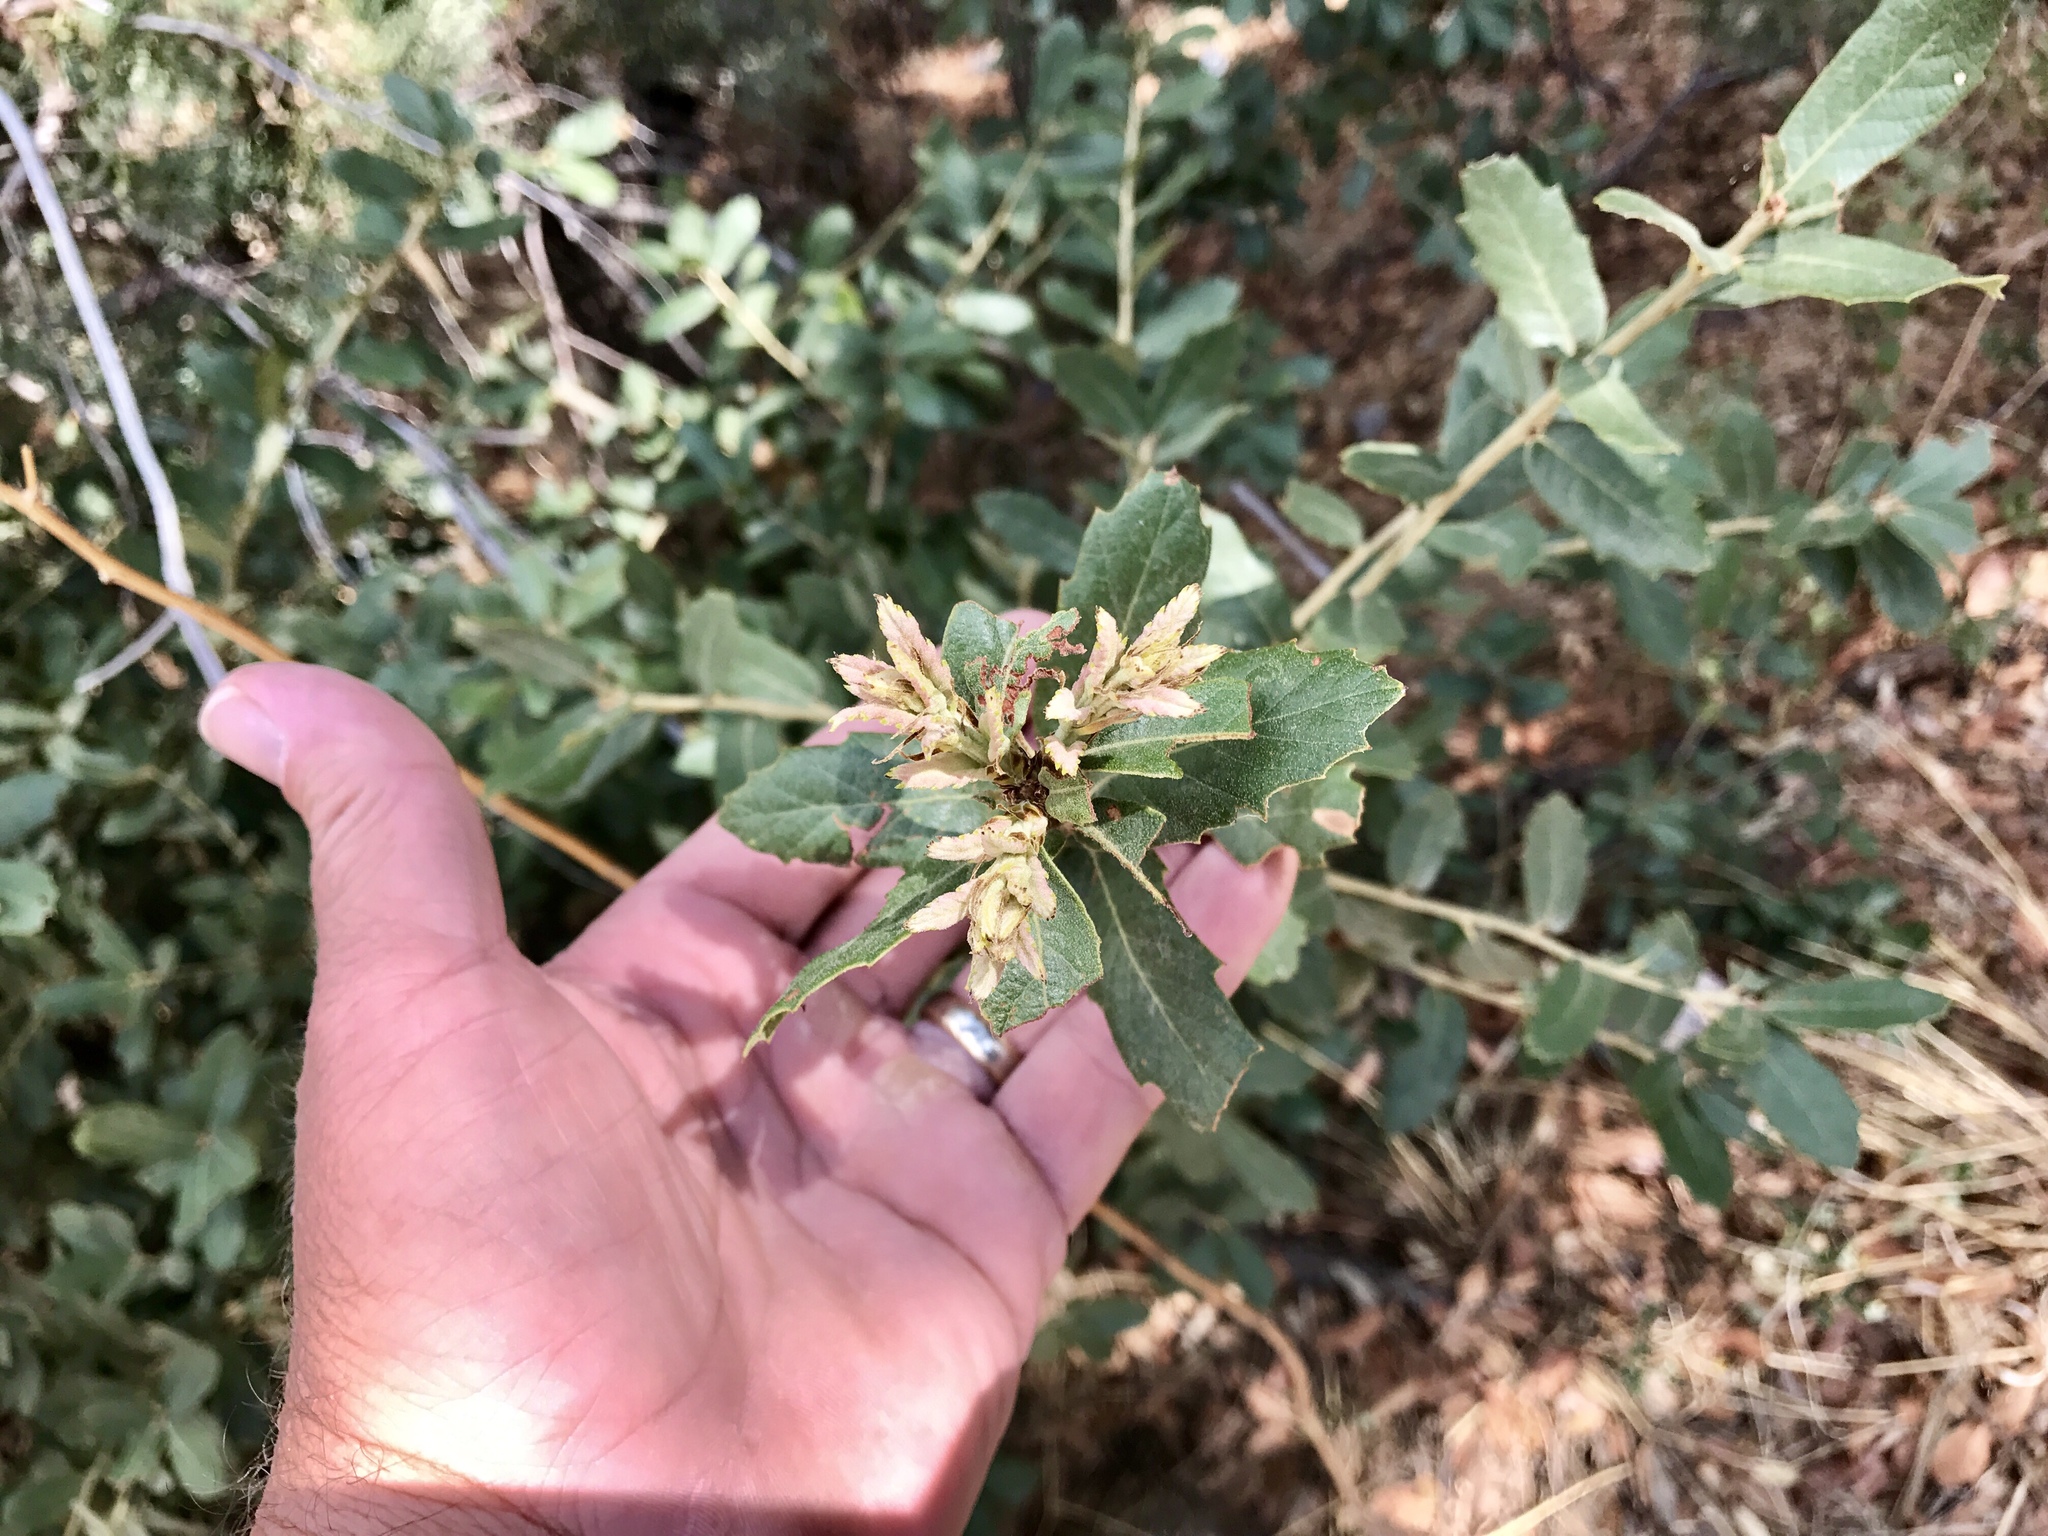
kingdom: Plantae
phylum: Tracheophyta
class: Magnoliopsida
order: Fagales
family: Fagaceae
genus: Quercus
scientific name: Quercus grisea
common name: Gray oak
